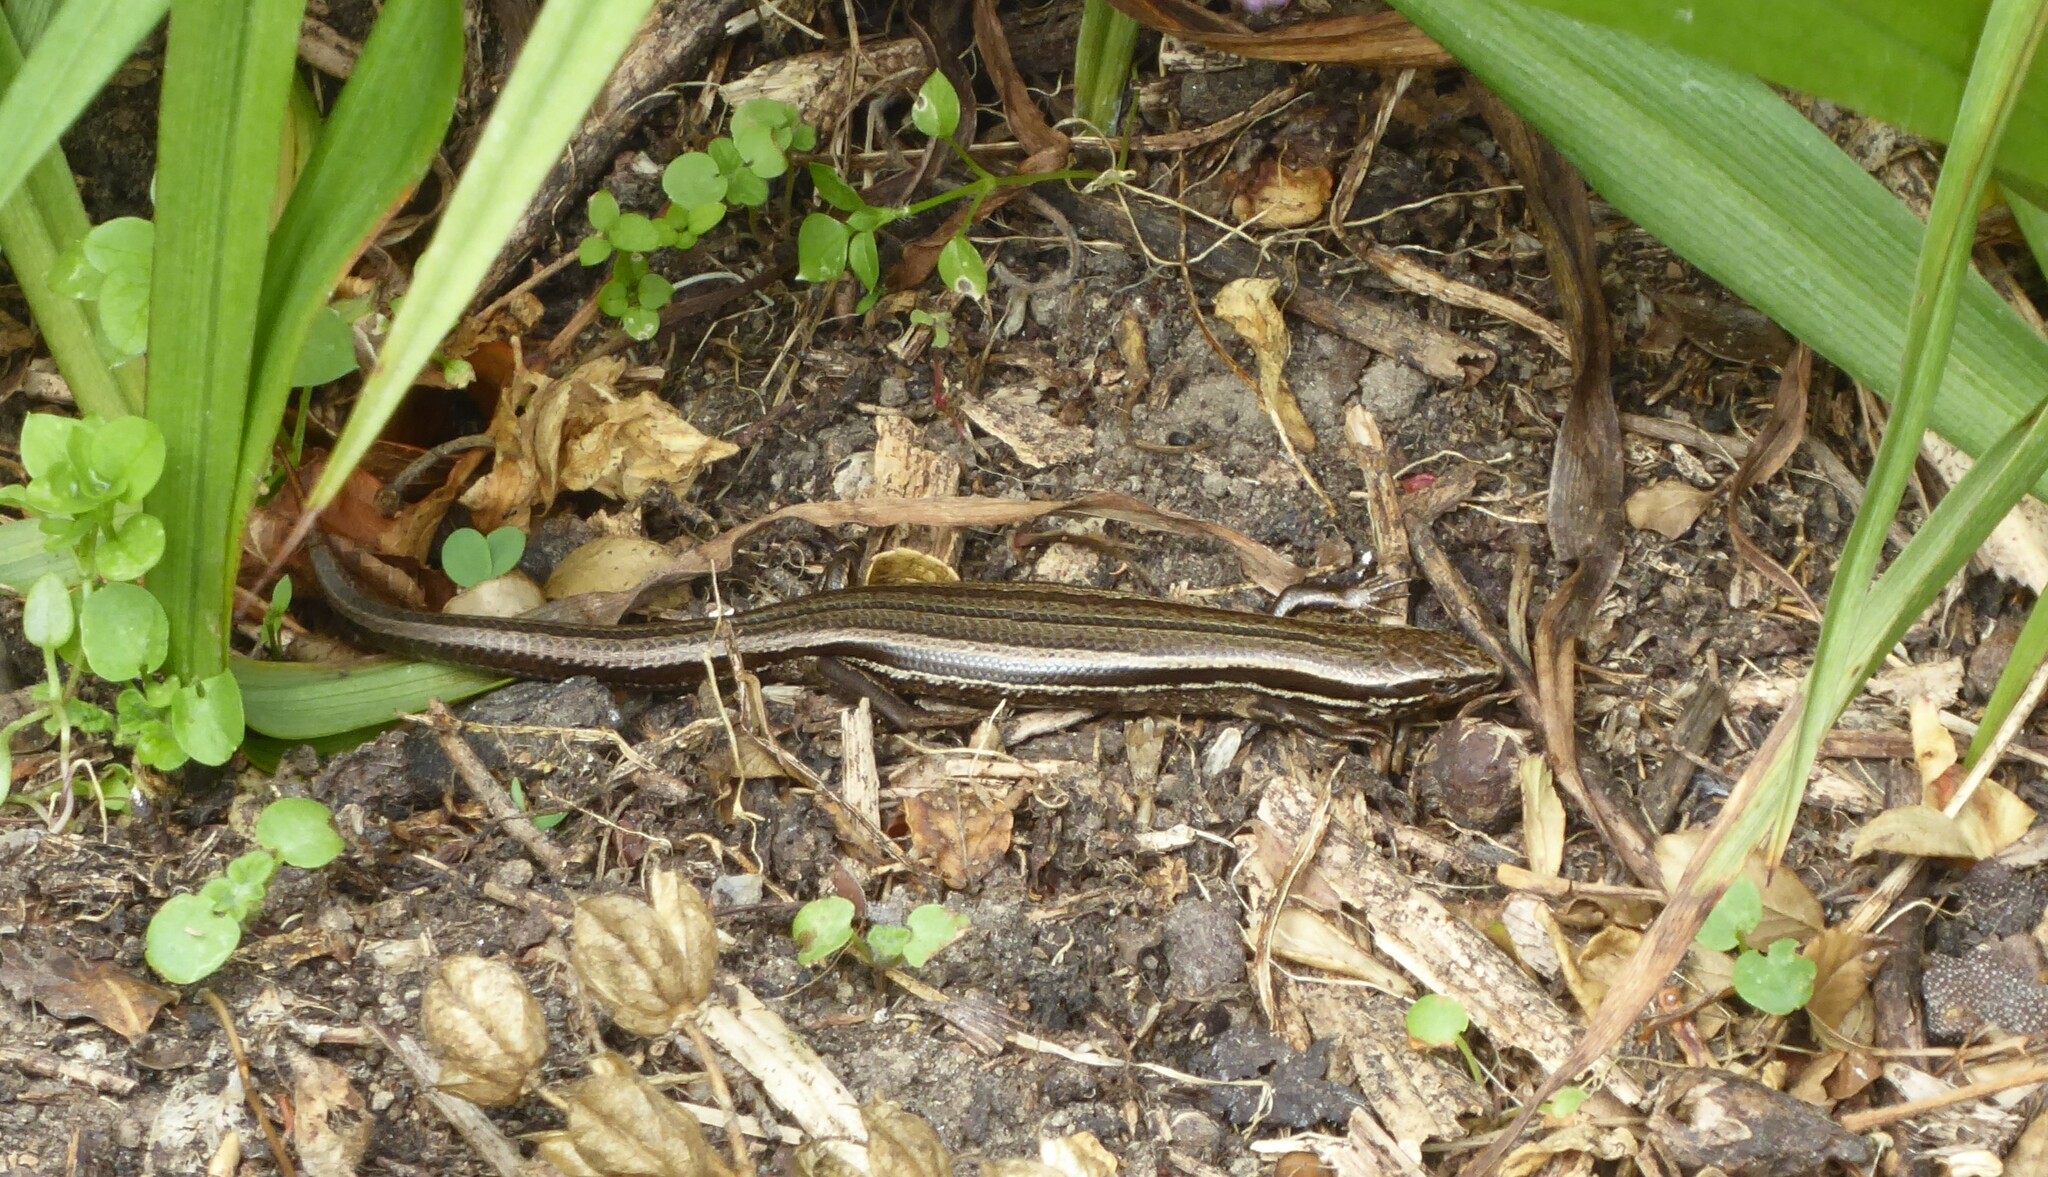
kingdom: Animalia
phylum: Chordata
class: Squamata
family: Scincidae
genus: Oligosoma
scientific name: Oligosoma polychroma
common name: Common new zealand skink
